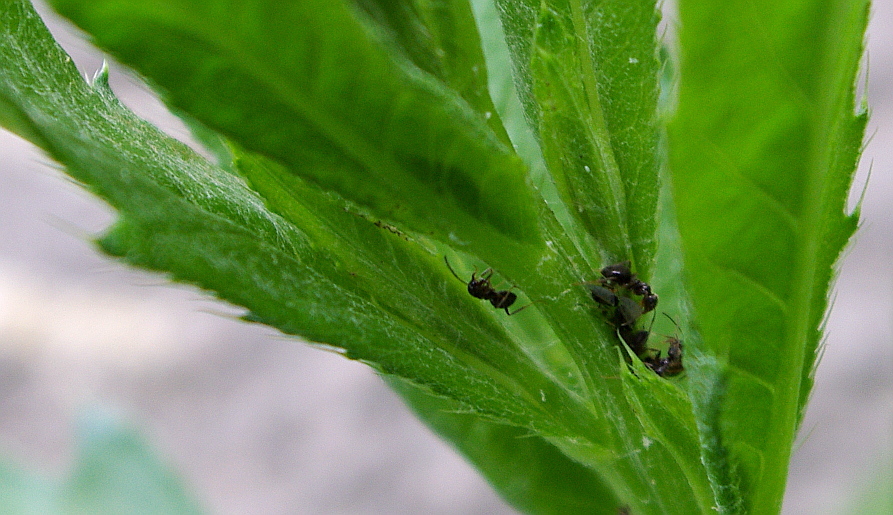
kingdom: Animalia
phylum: Arthropoda
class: Insecta
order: Hymenoptera
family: Formicidae
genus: Lasius
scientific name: Lasius
